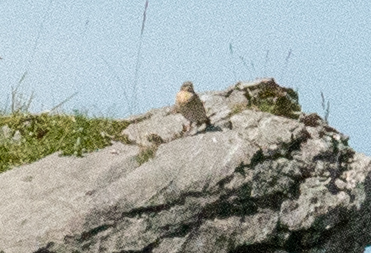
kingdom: Animalia
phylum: Chordata
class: Aves
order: Passeriformes
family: Muscicapidae
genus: Oenanthe
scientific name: Oenanthe oenanthe
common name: Northern wheatear
